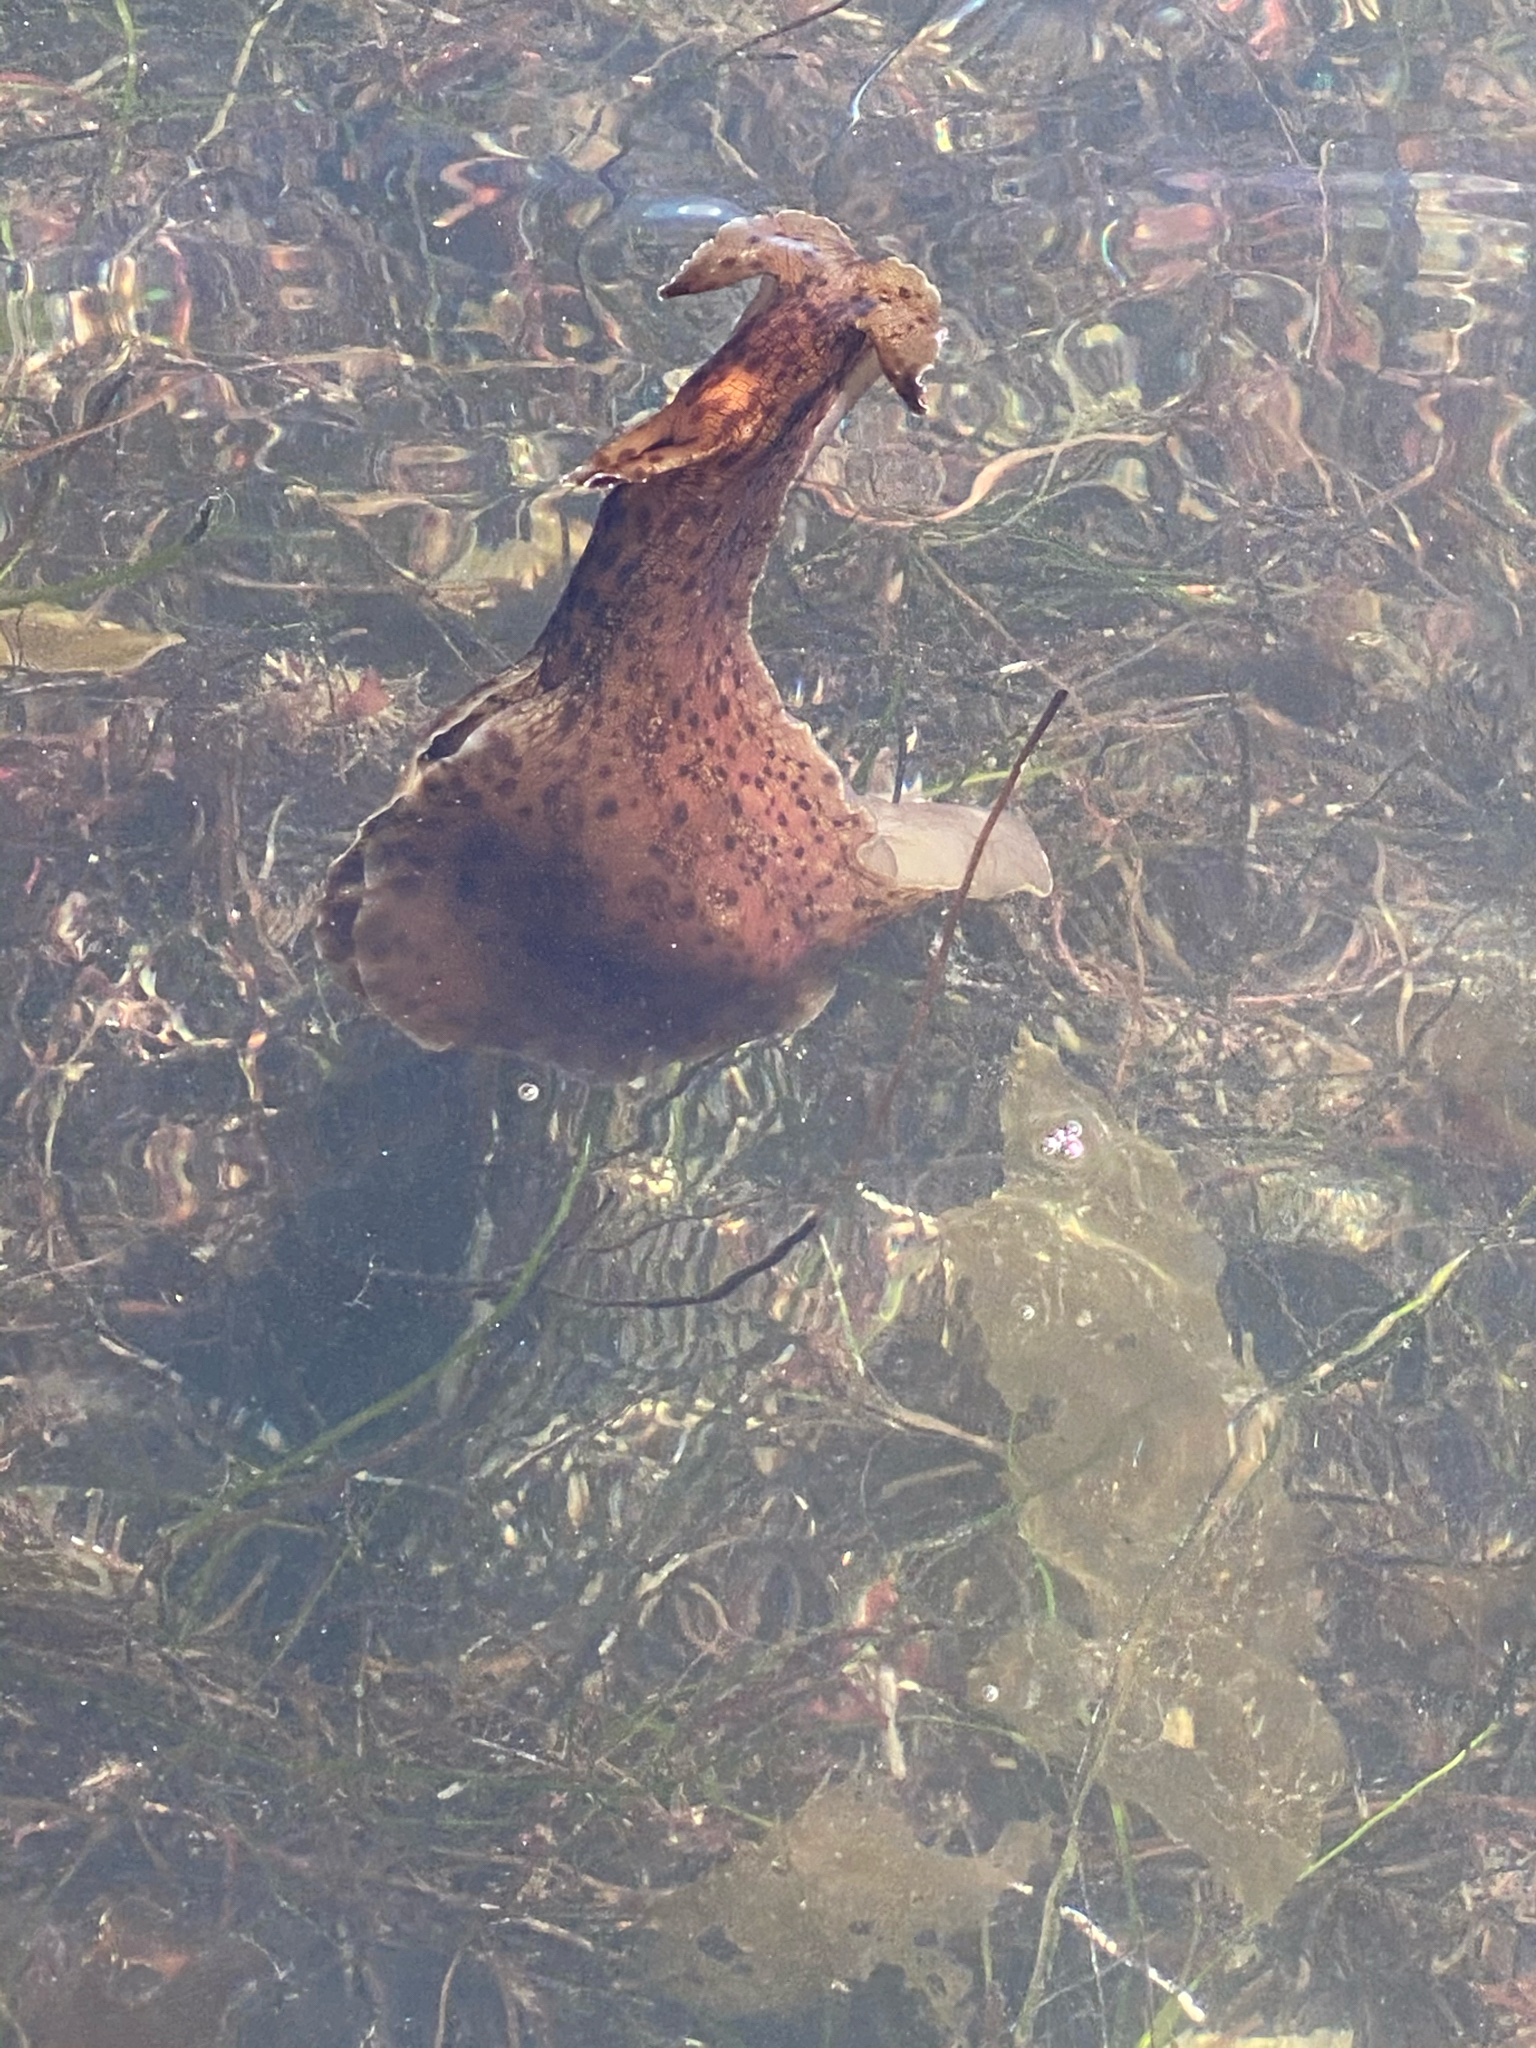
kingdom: Animalia
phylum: Mollusca
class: Gastropoda
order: Aplysiida
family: Aplysiidae
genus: Aplysia
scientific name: Aplysia californica
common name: California seahare
